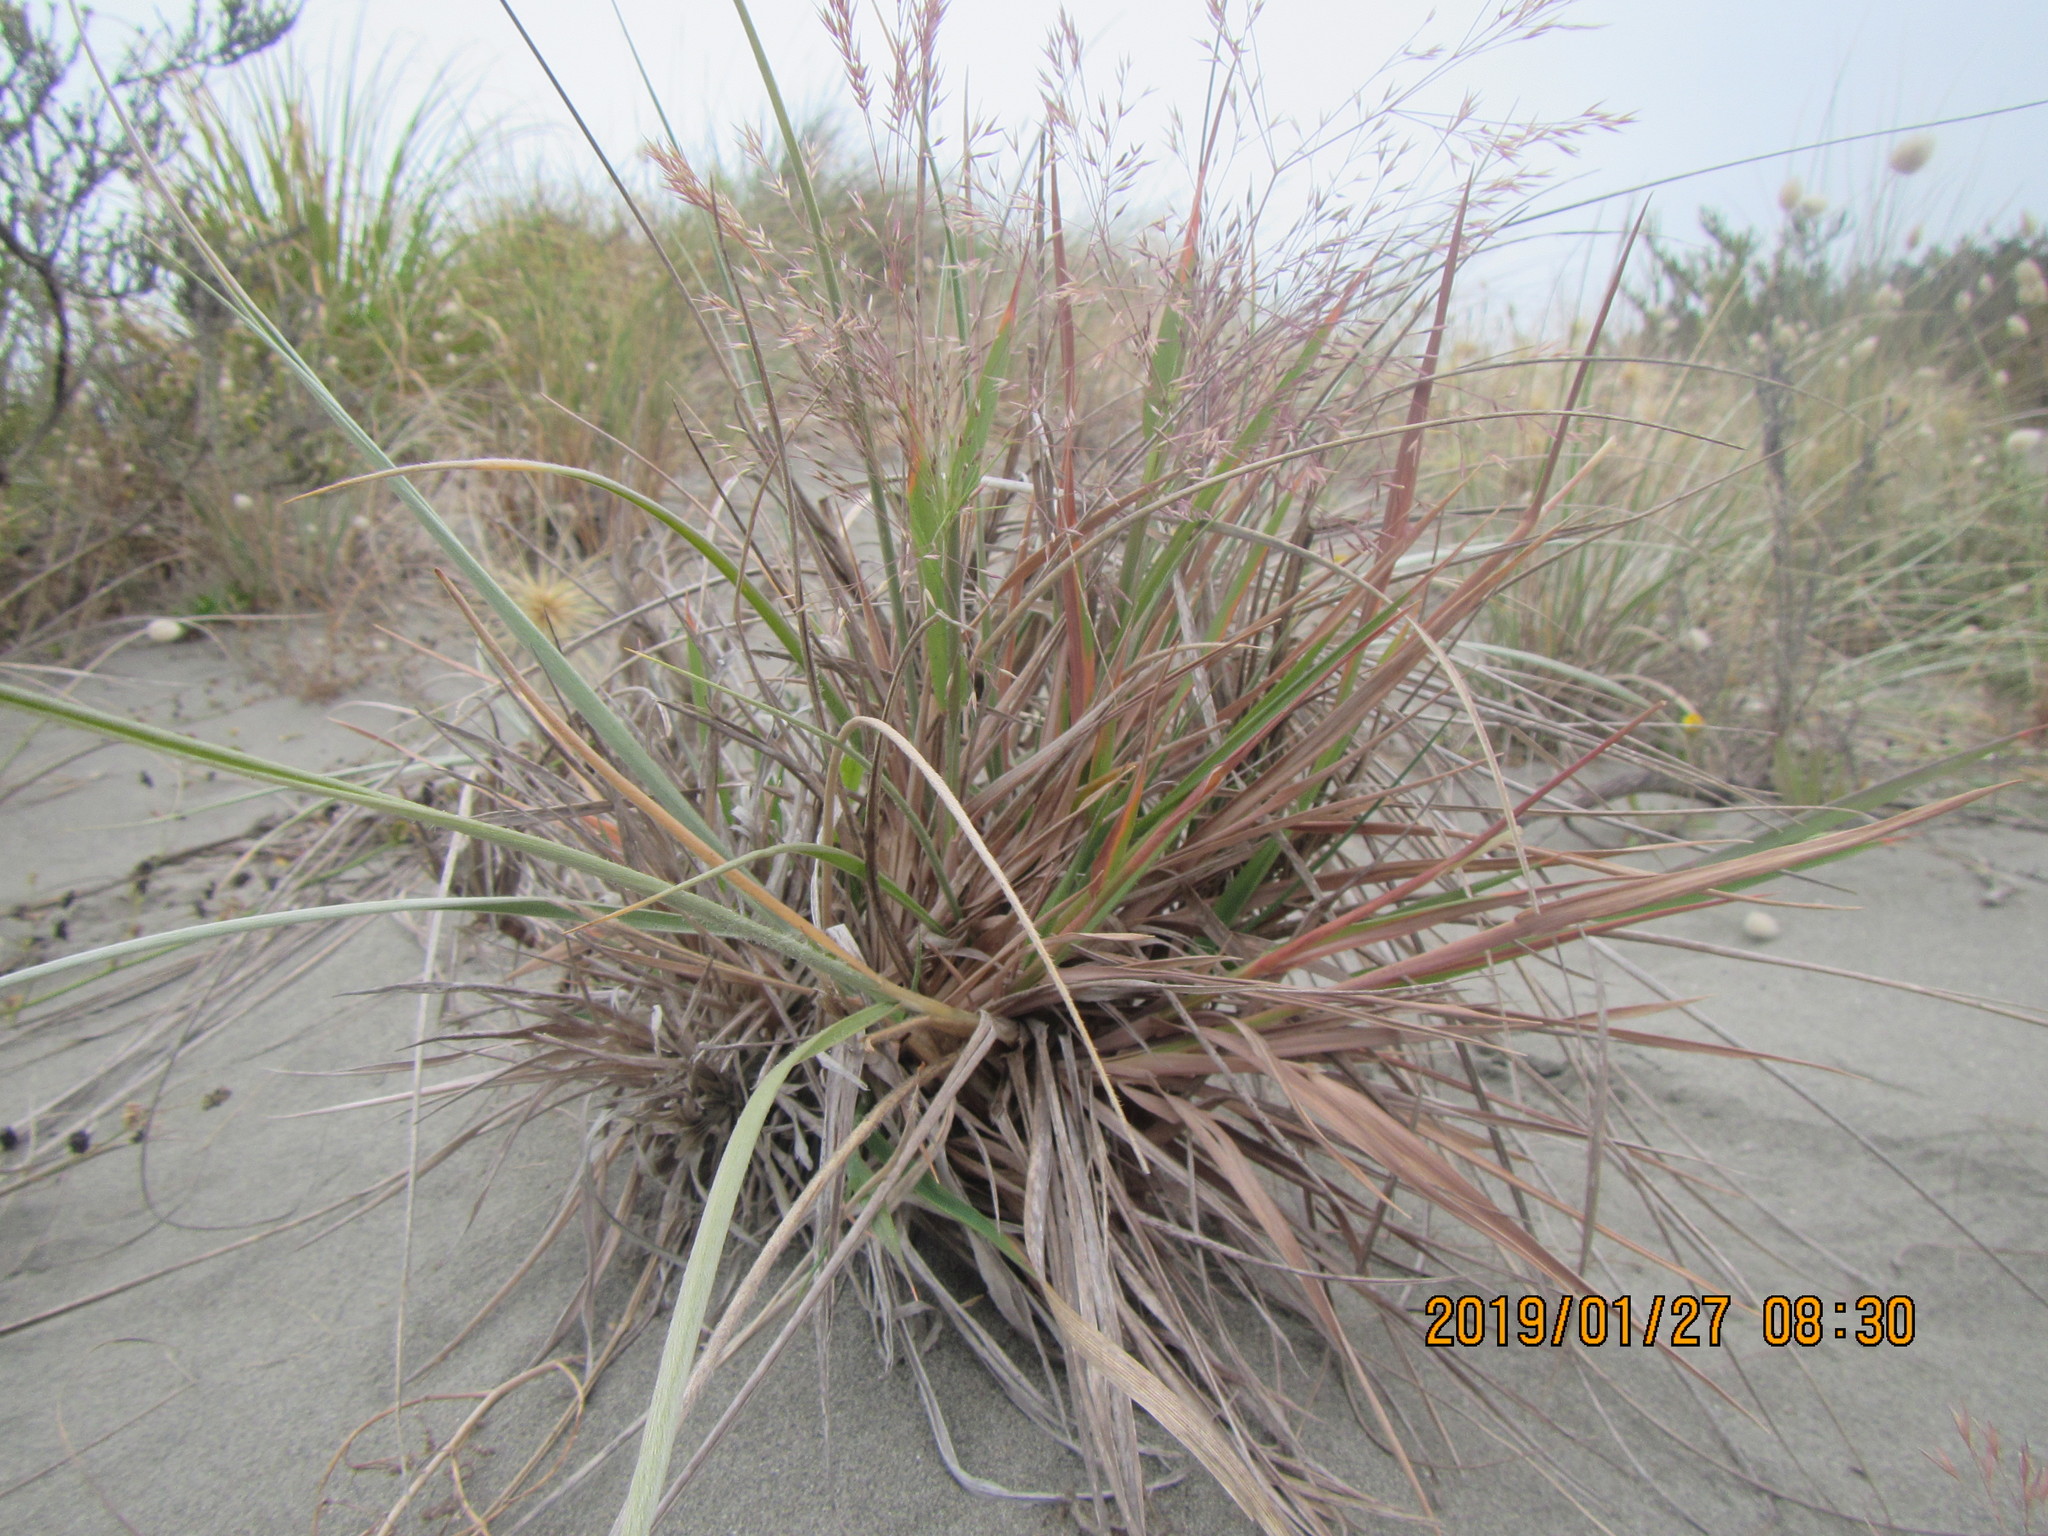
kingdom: Plantae
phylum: Tracheophyta
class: Liliopsida
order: Poales
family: Poaceae
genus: Lachnagrostis
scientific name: Lachnagrostis billardierei
